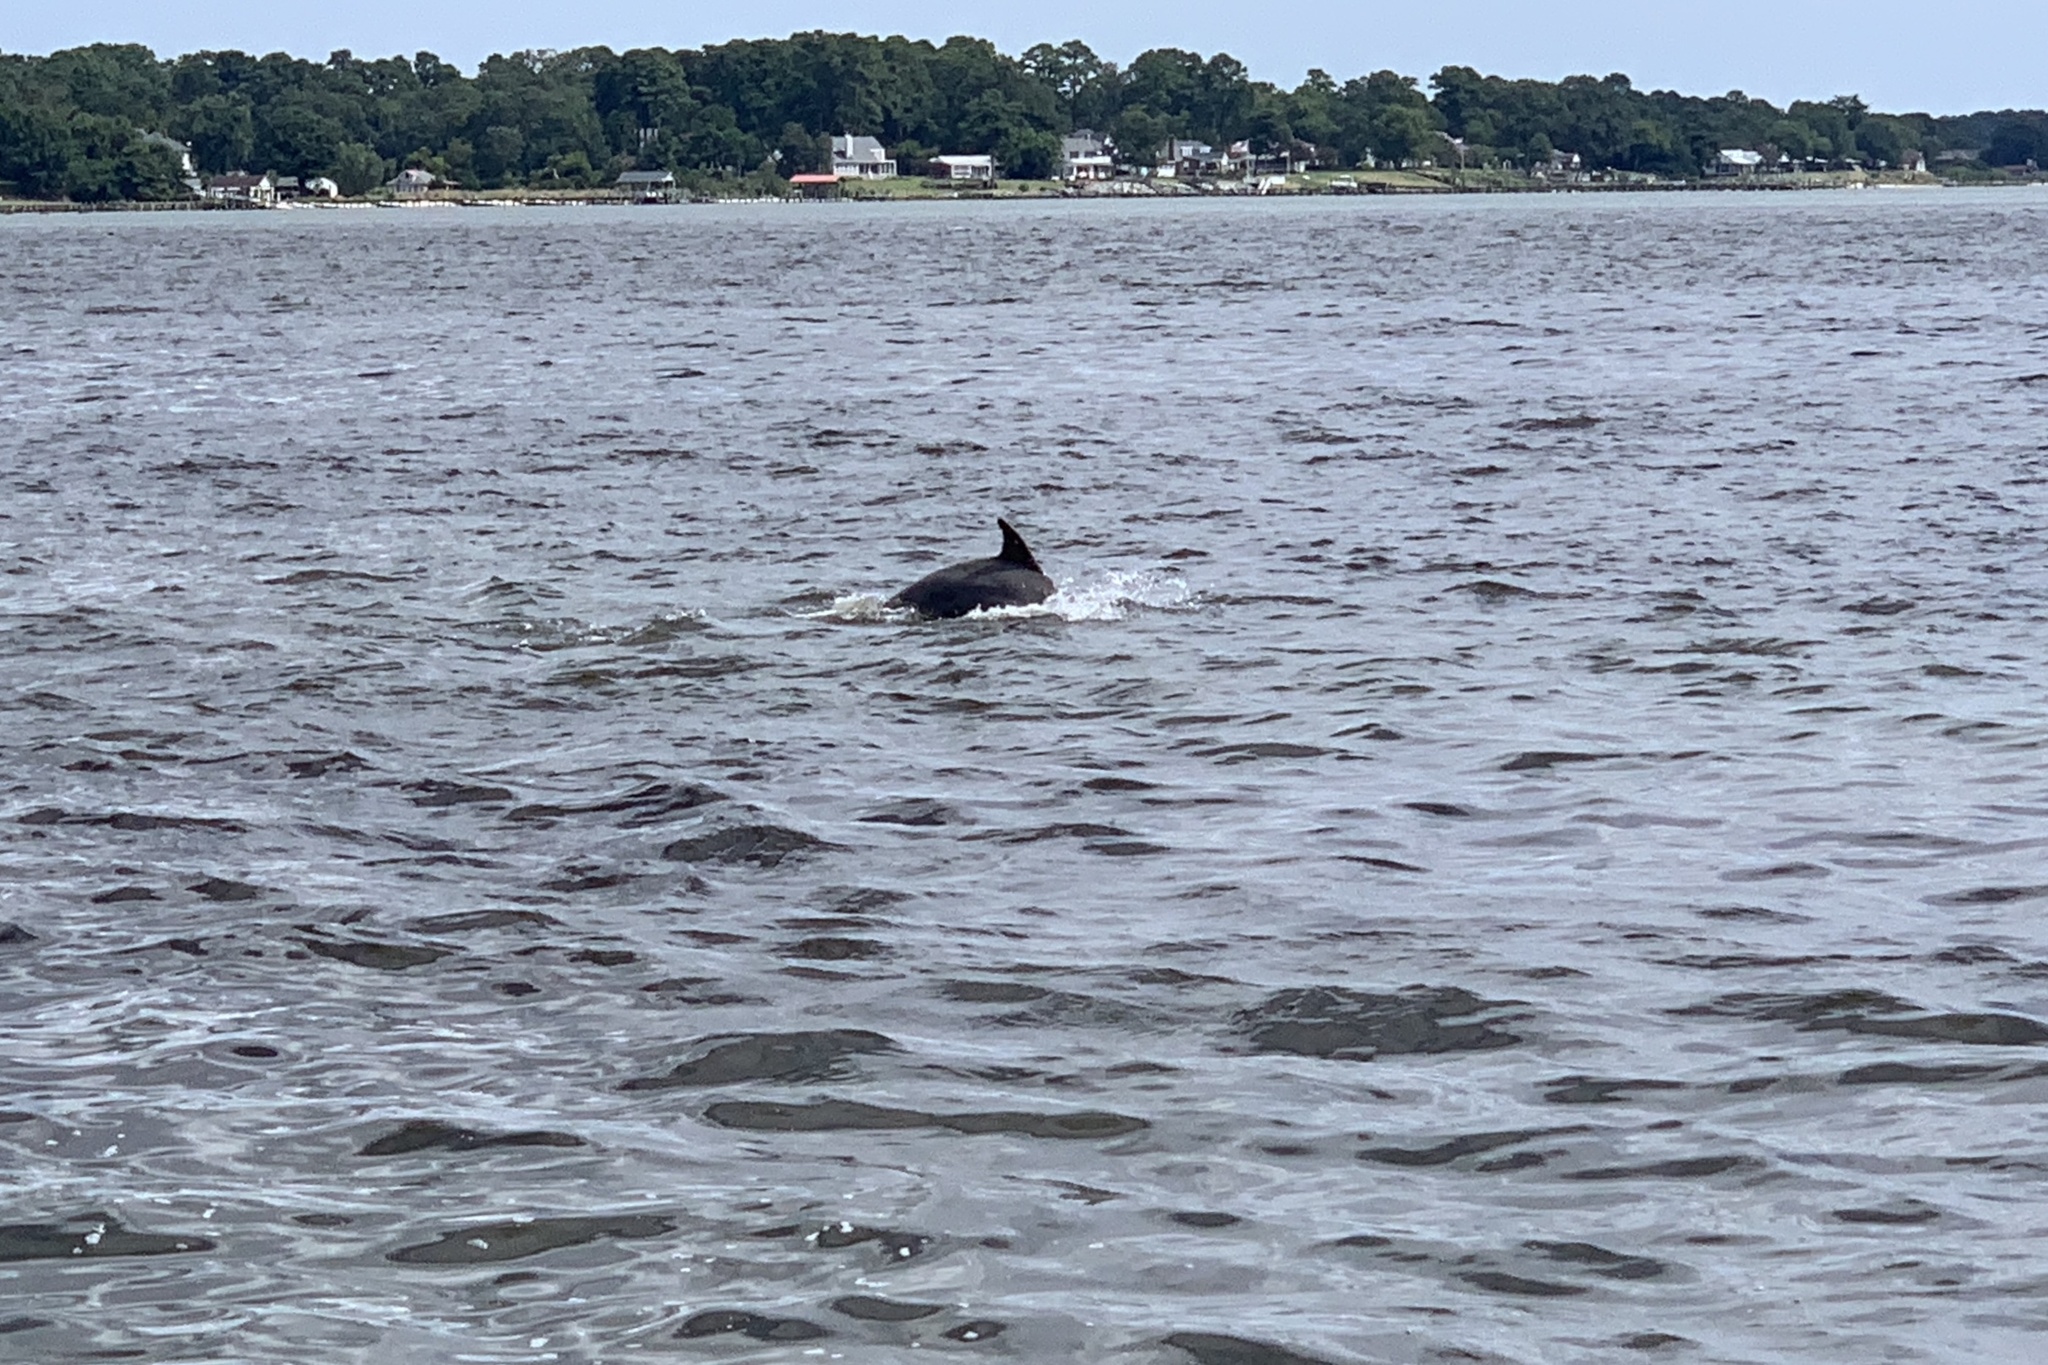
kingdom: Animalia
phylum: Chordata
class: Mammalia
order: Cetacea
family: Delphinidae
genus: Tursiops
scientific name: Tursiops truncatus
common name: Bottlenose dolphin
